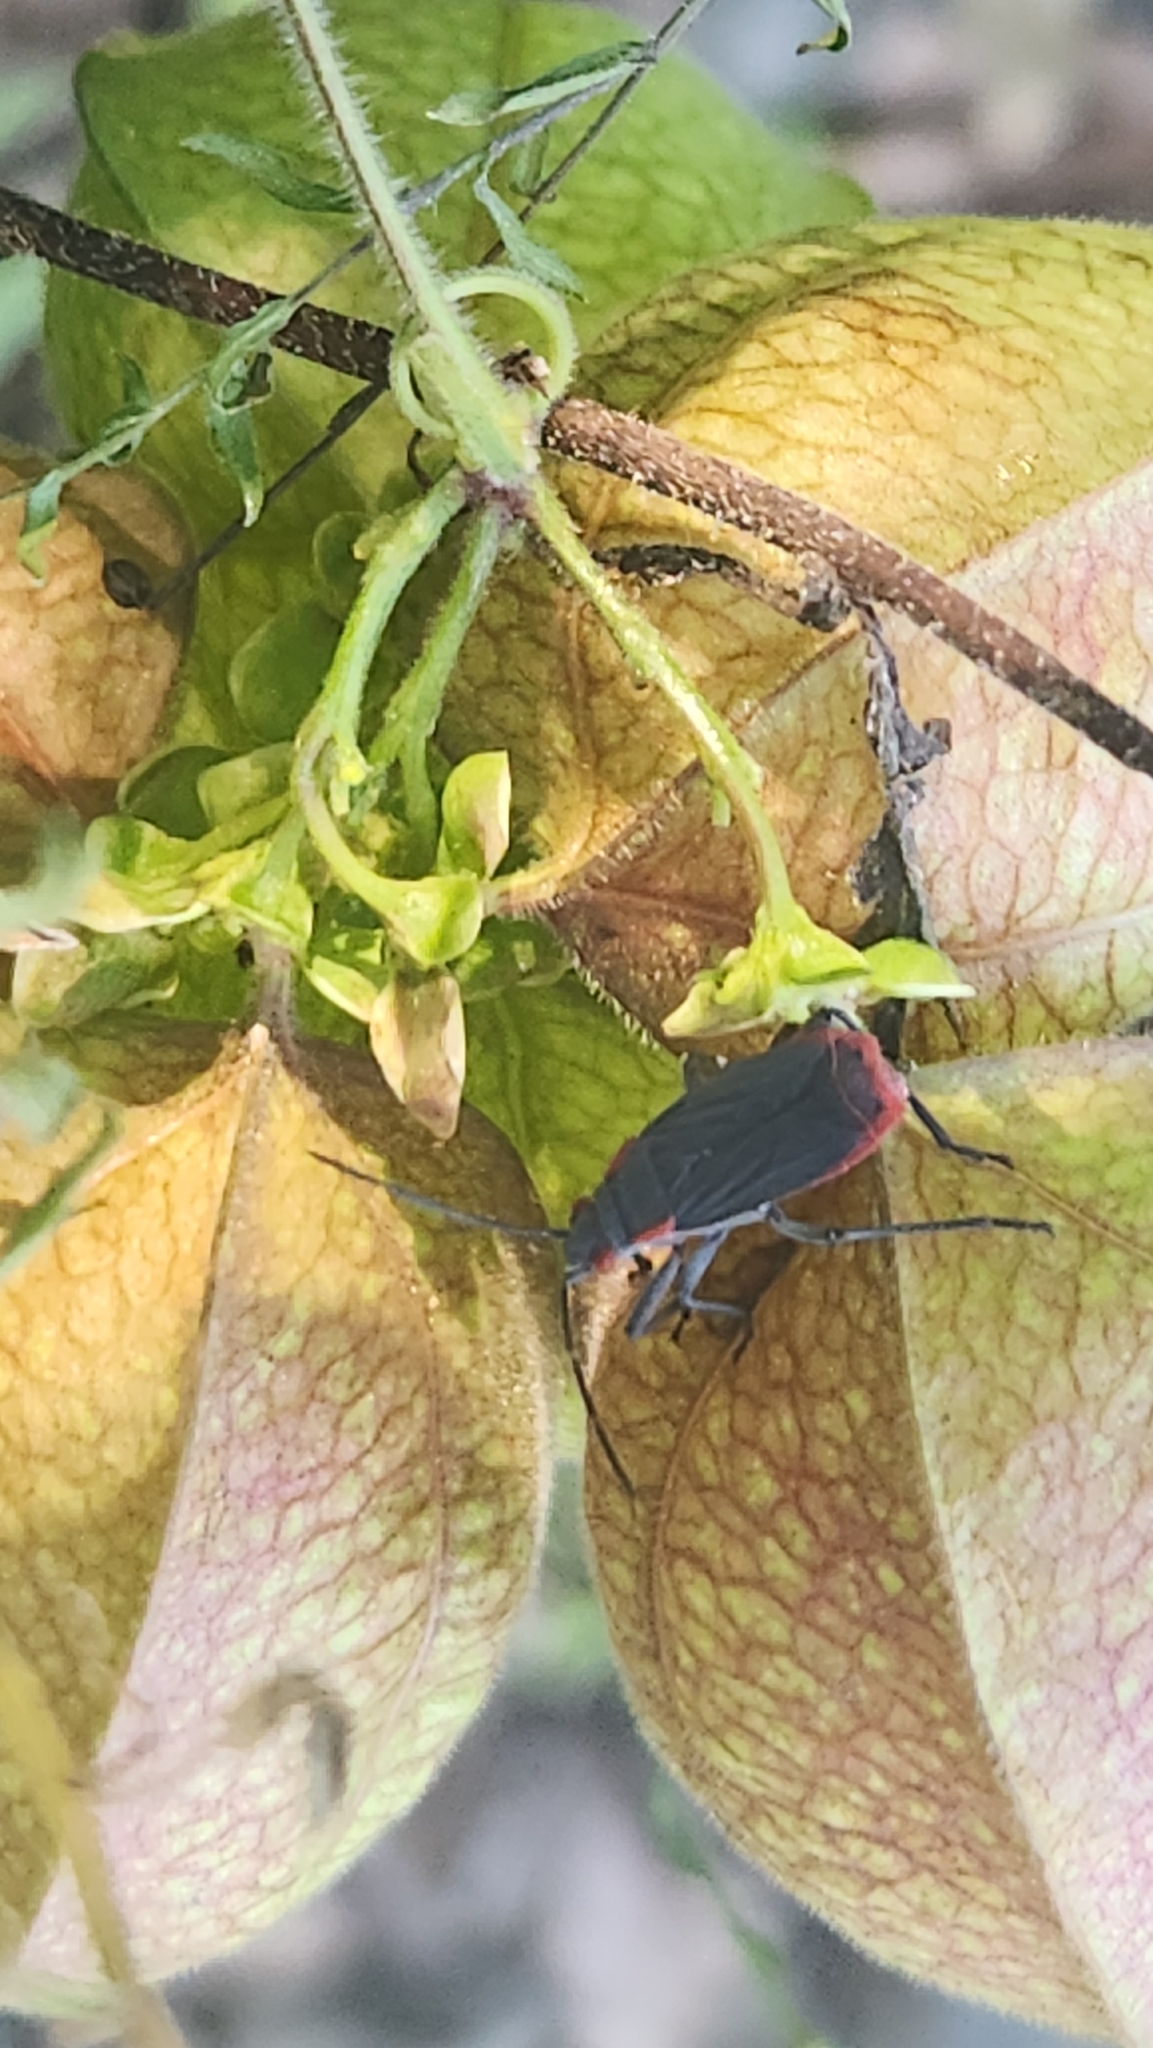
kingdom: Animalia
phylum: Arthropoda
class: Insecta
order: Hemiptera
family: Rhopalidae
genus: Jadera
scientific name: Jadera haematoloma
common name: Red-shouldered bug
